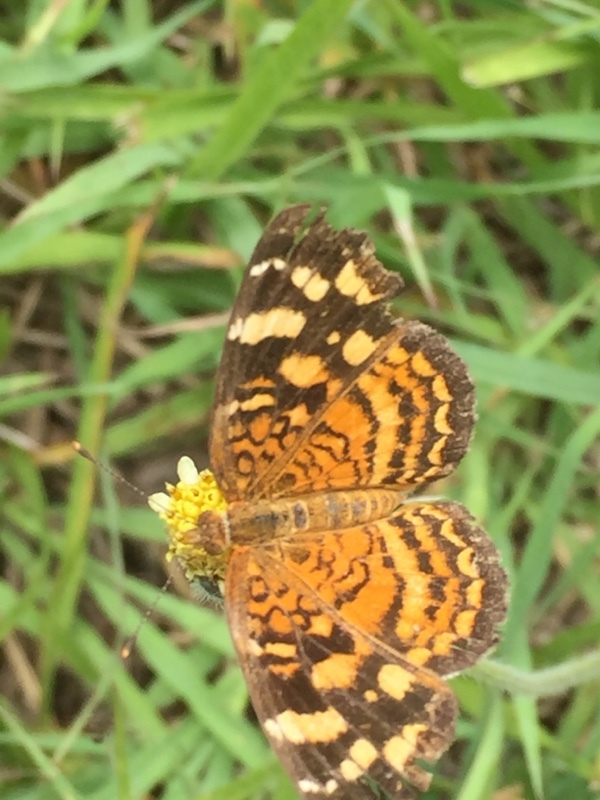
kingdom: Animalia
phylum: Arthropoda
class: Insecta
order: Lepidoptera
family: Nymphalidae
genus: Anthanassa
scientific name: Anthanassa frisia
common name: Cuban crescent
